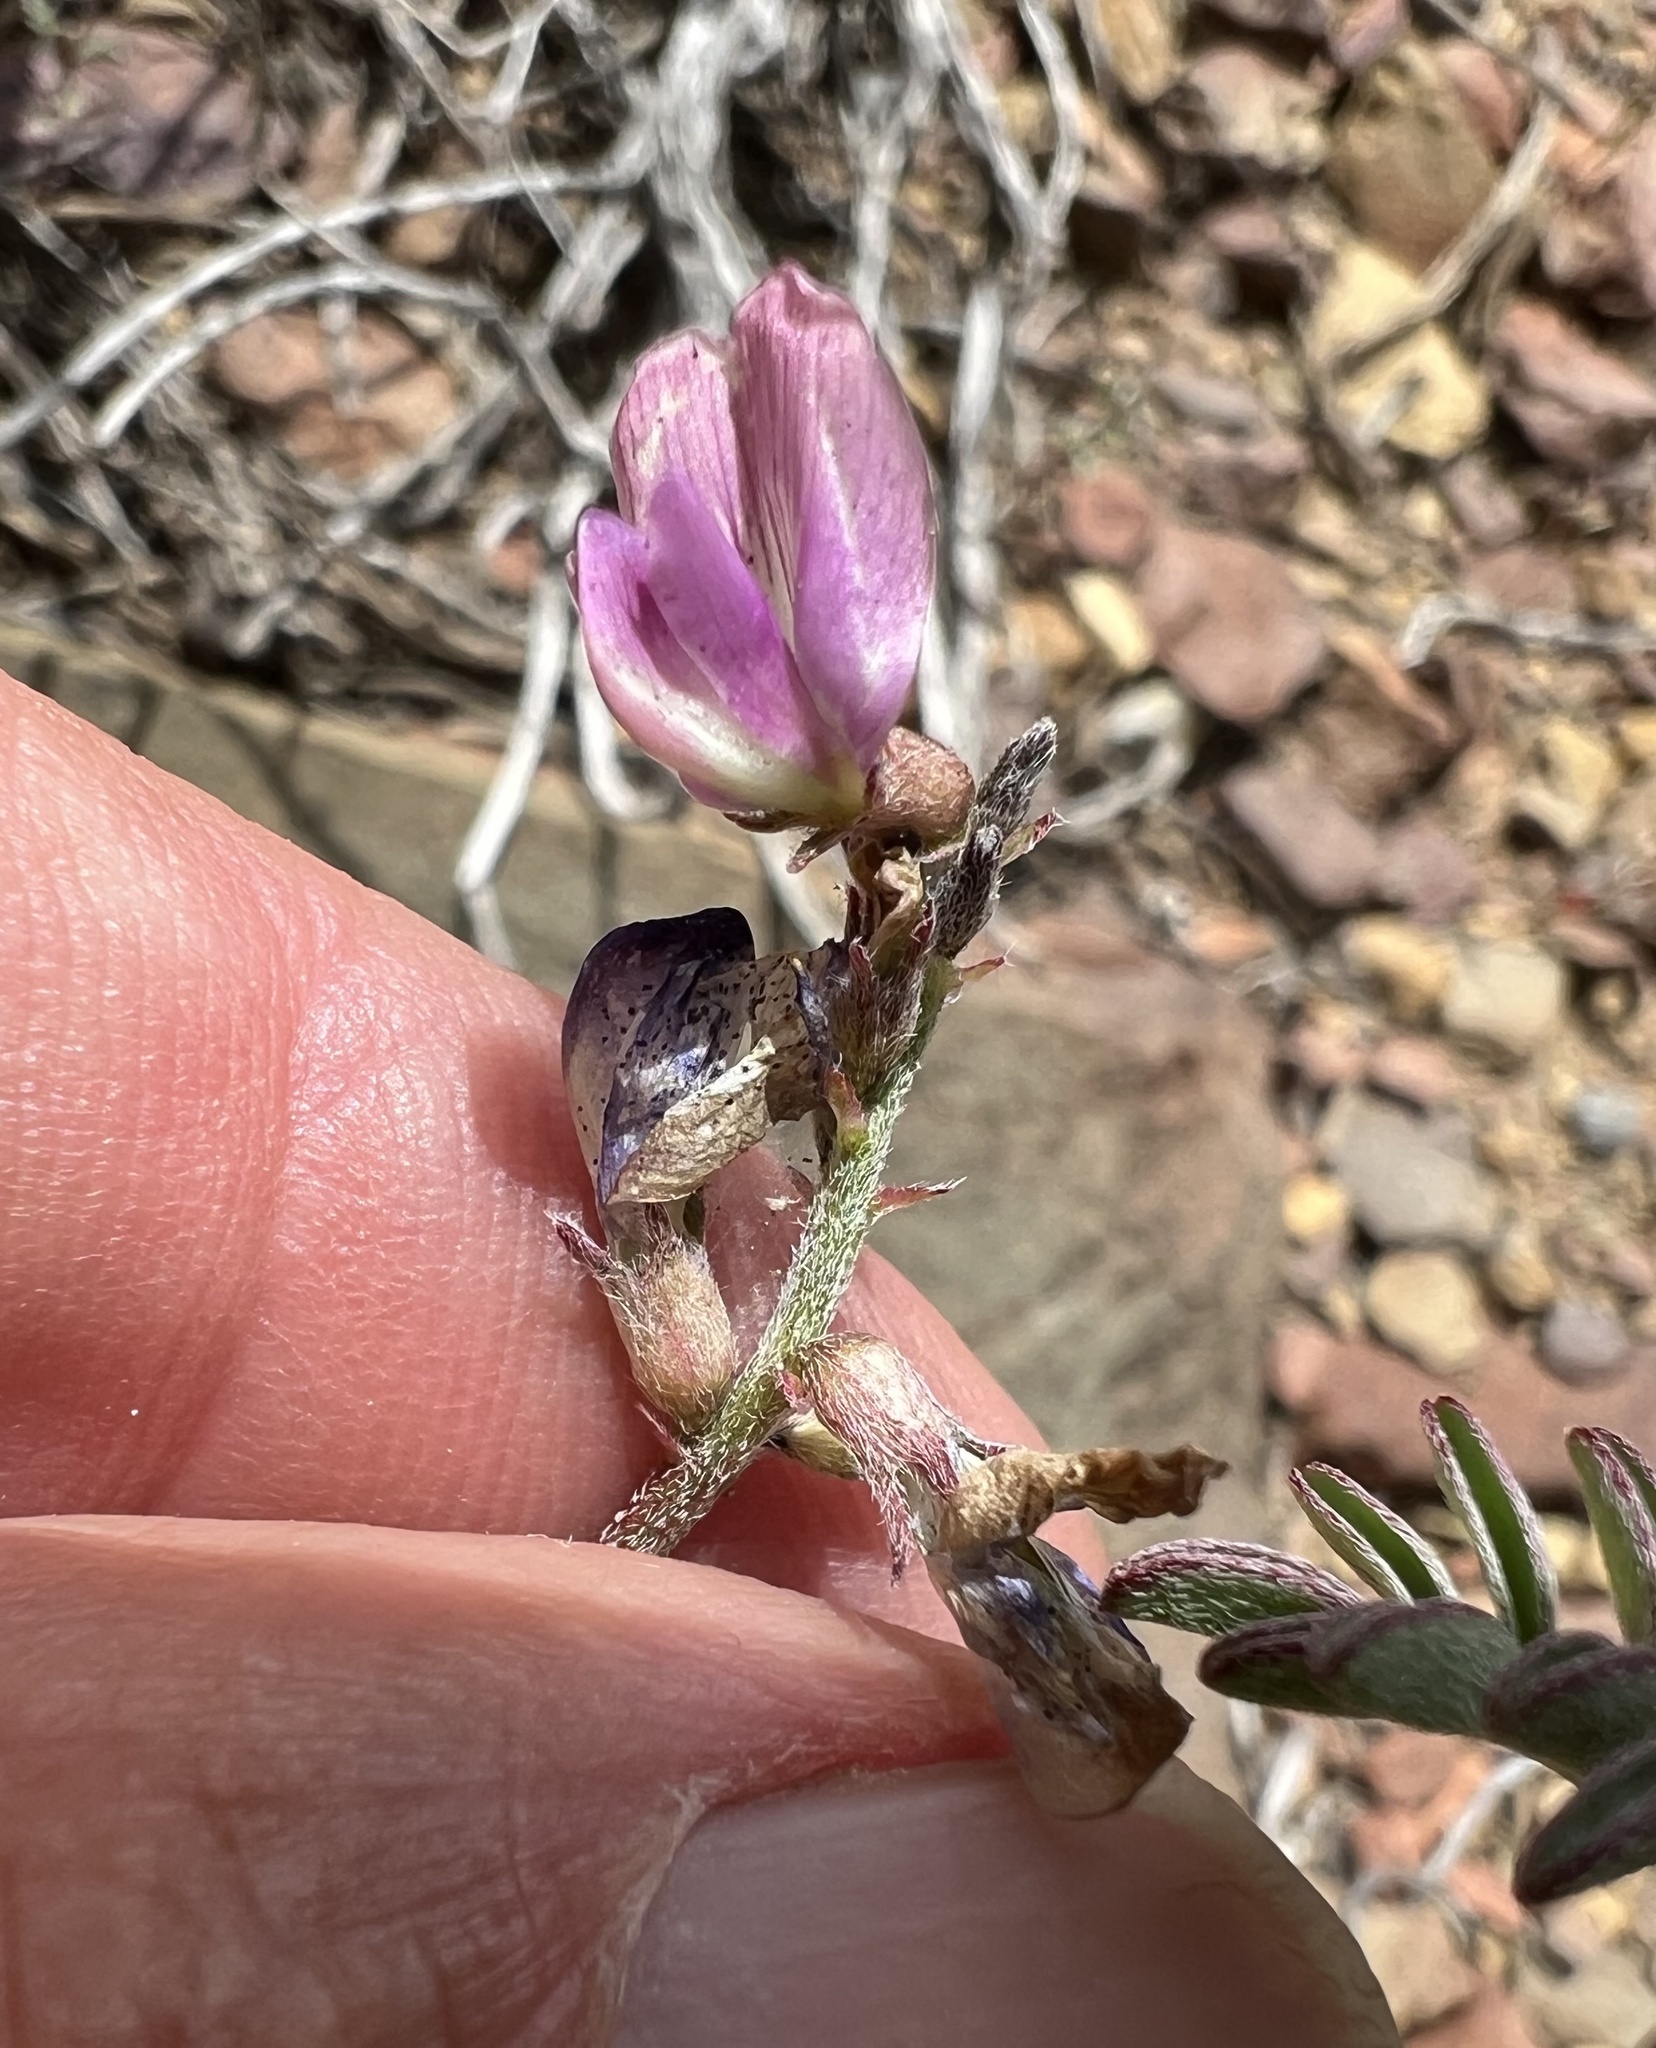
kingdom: Plantae
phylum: Tracheophyta
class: Magnoliopsida
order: Fabales
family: Fabaceae
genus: Astragalus
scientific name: Astragalus inyoensis
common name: Inyo locoweed
